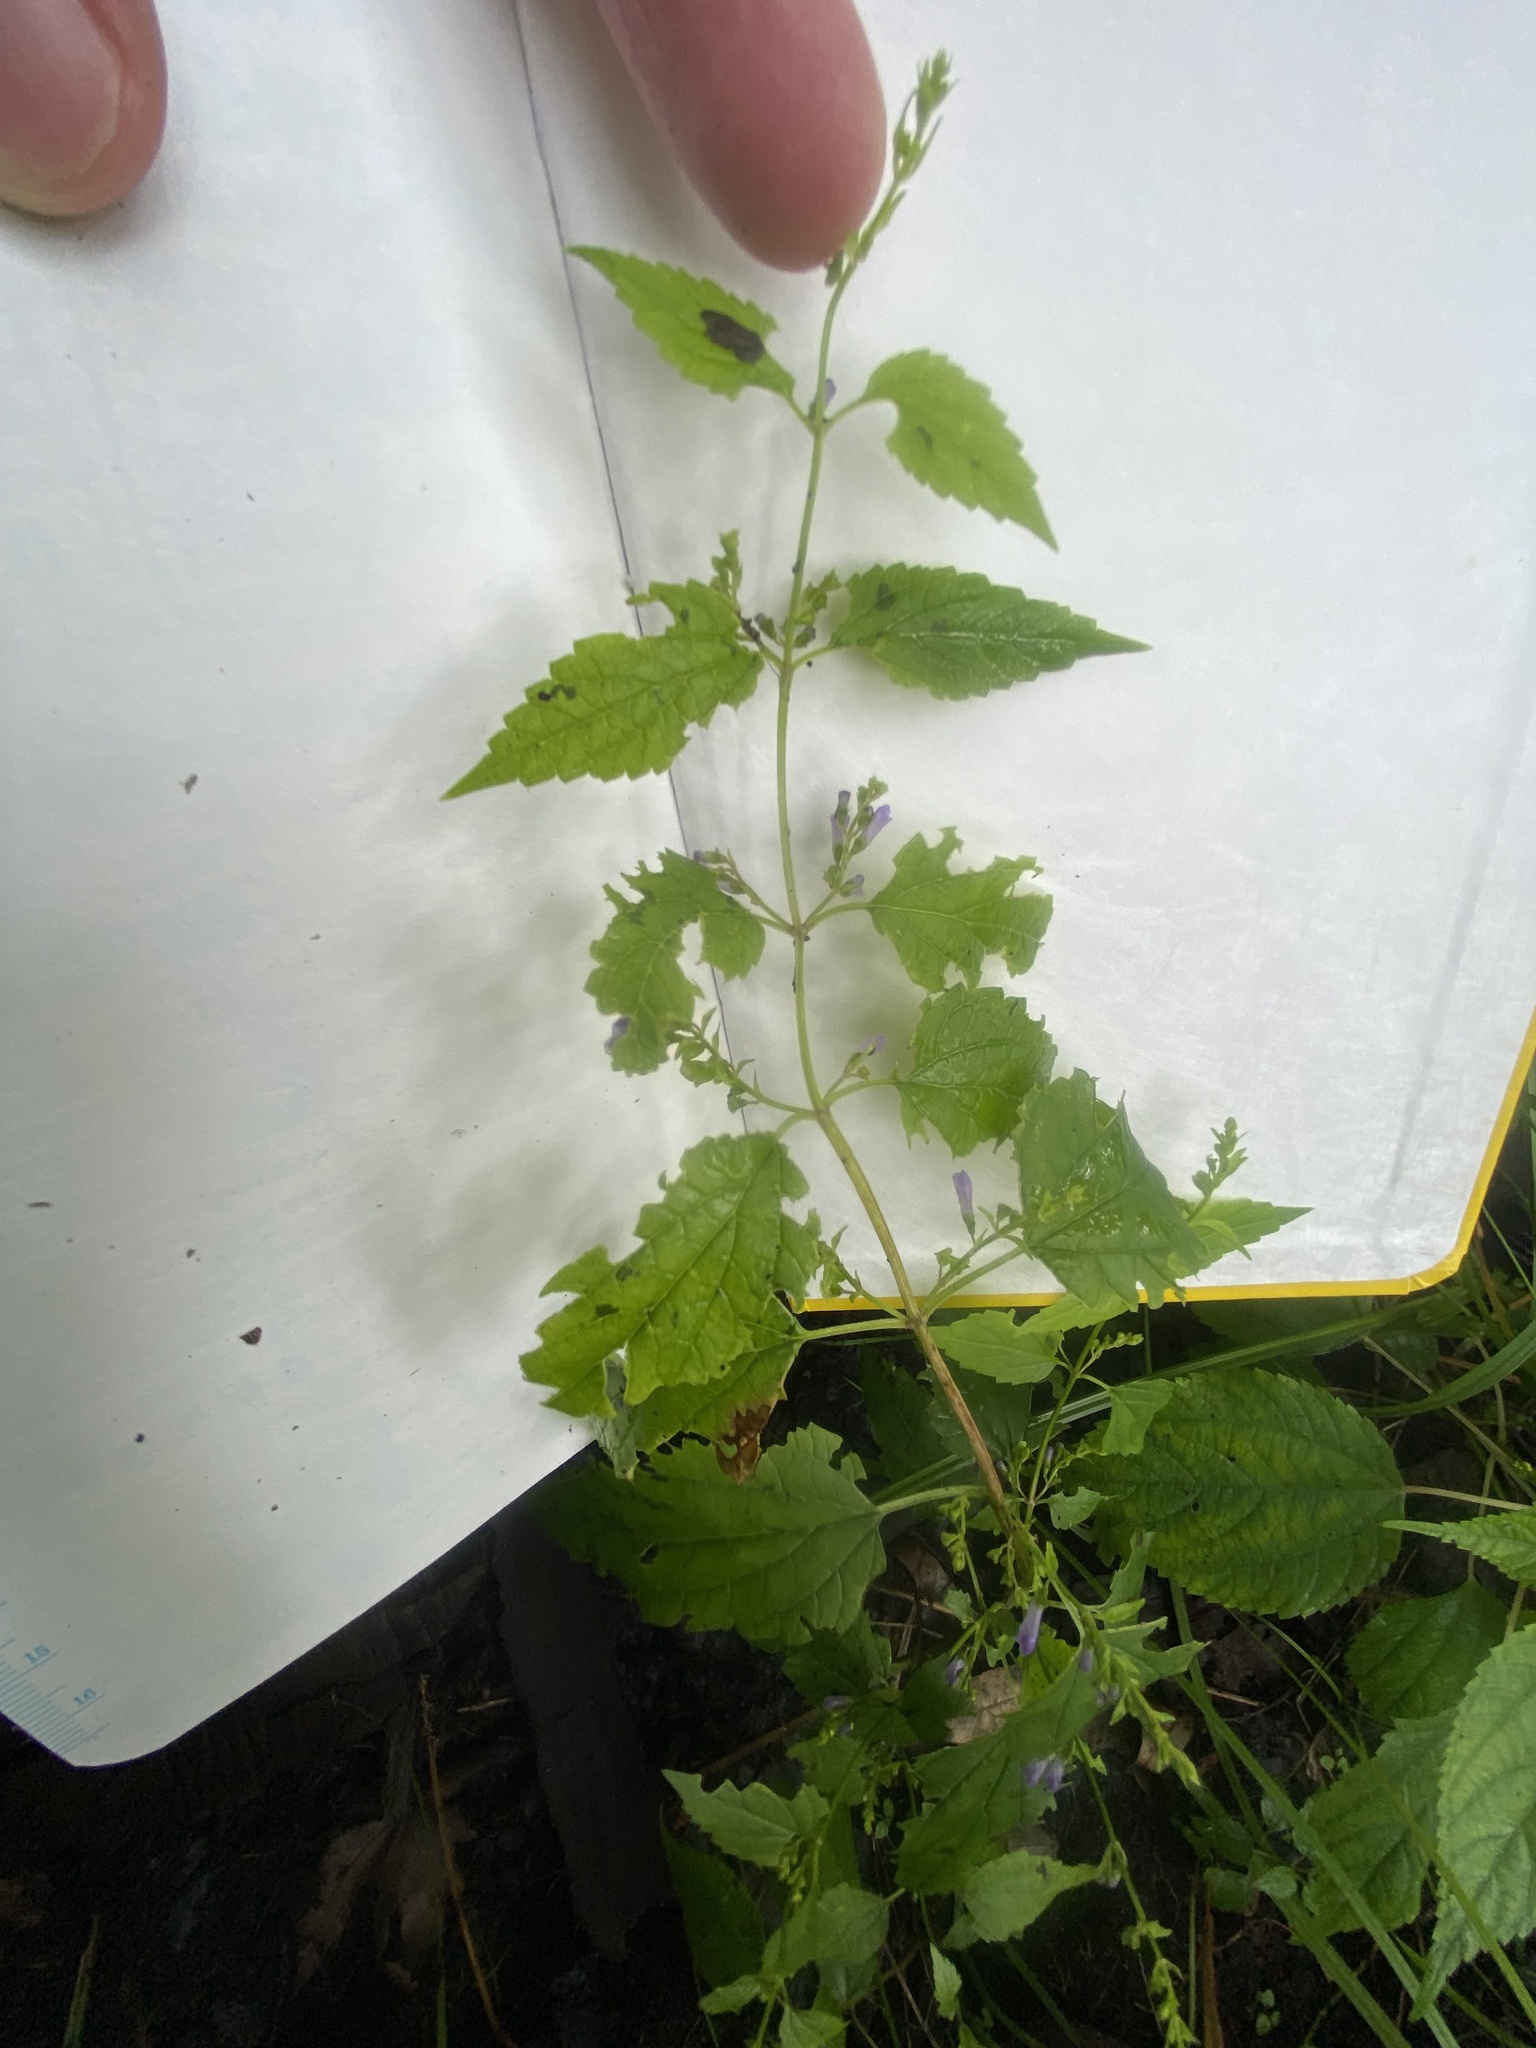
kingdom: Plantae
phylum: Tracheophyta
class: Magnoliopsida
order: Lamiales
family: Lamiaceae
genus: Scutellaria
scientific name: Scutellaria lateriflora
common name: Blue skullcap
